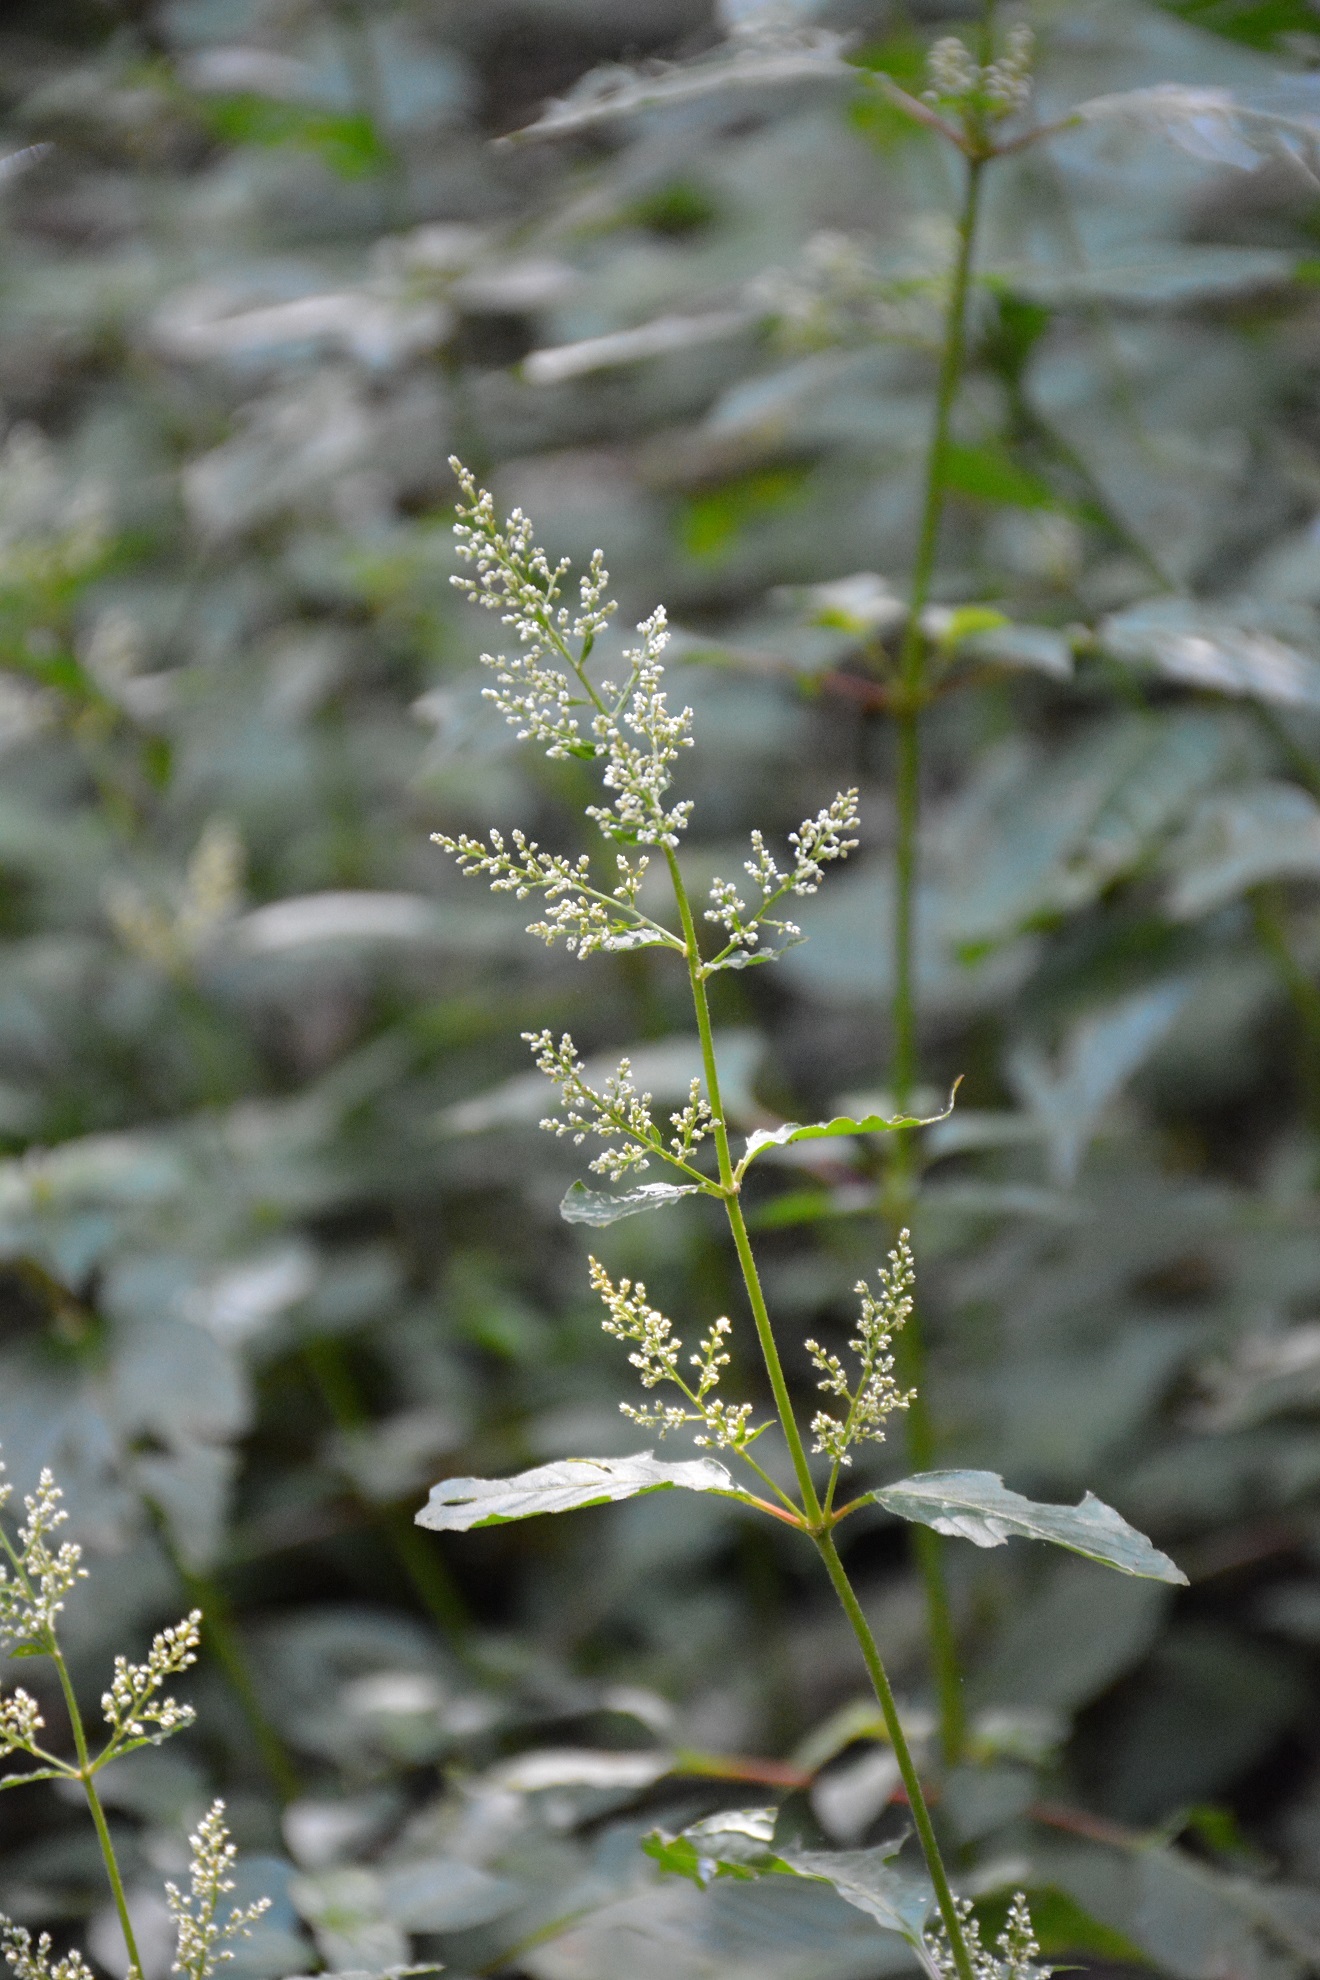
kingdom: Plantae
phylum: Tracheophyta
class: Magnoliopsida
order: Caryophyllales
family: Amaranthaceae
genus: Iresine
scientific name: Iresine diffusa
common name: Juba's-bush
